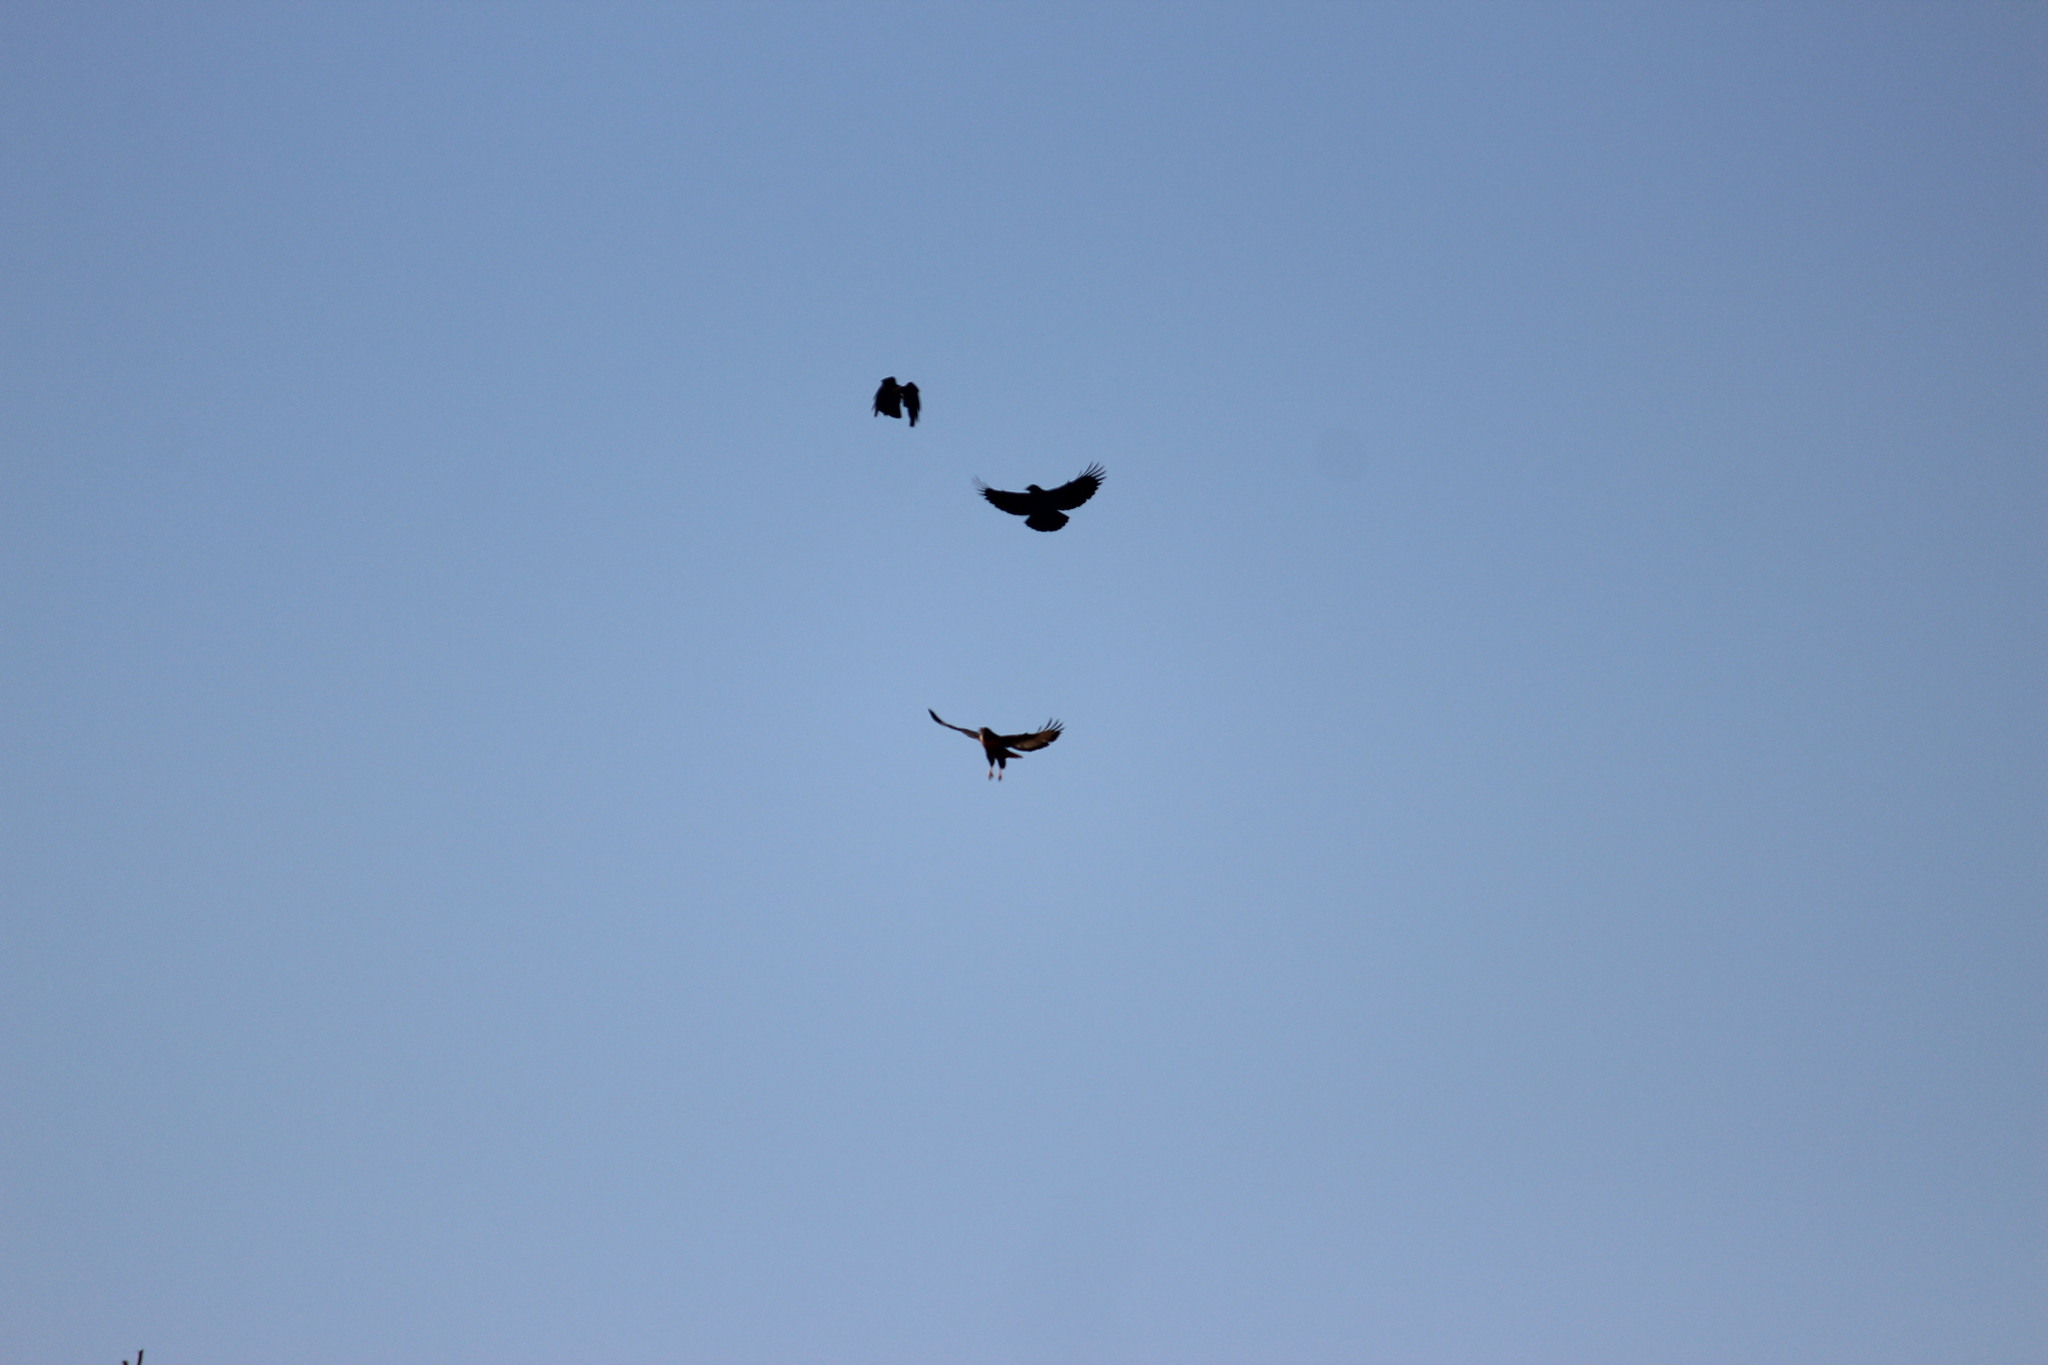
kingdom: Animalia
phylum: Chordata
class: Aves
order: Accipitriformes
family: Accipitridae
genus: Buteo
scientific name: Buteo rufofuscus
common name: Jackal buzzard
